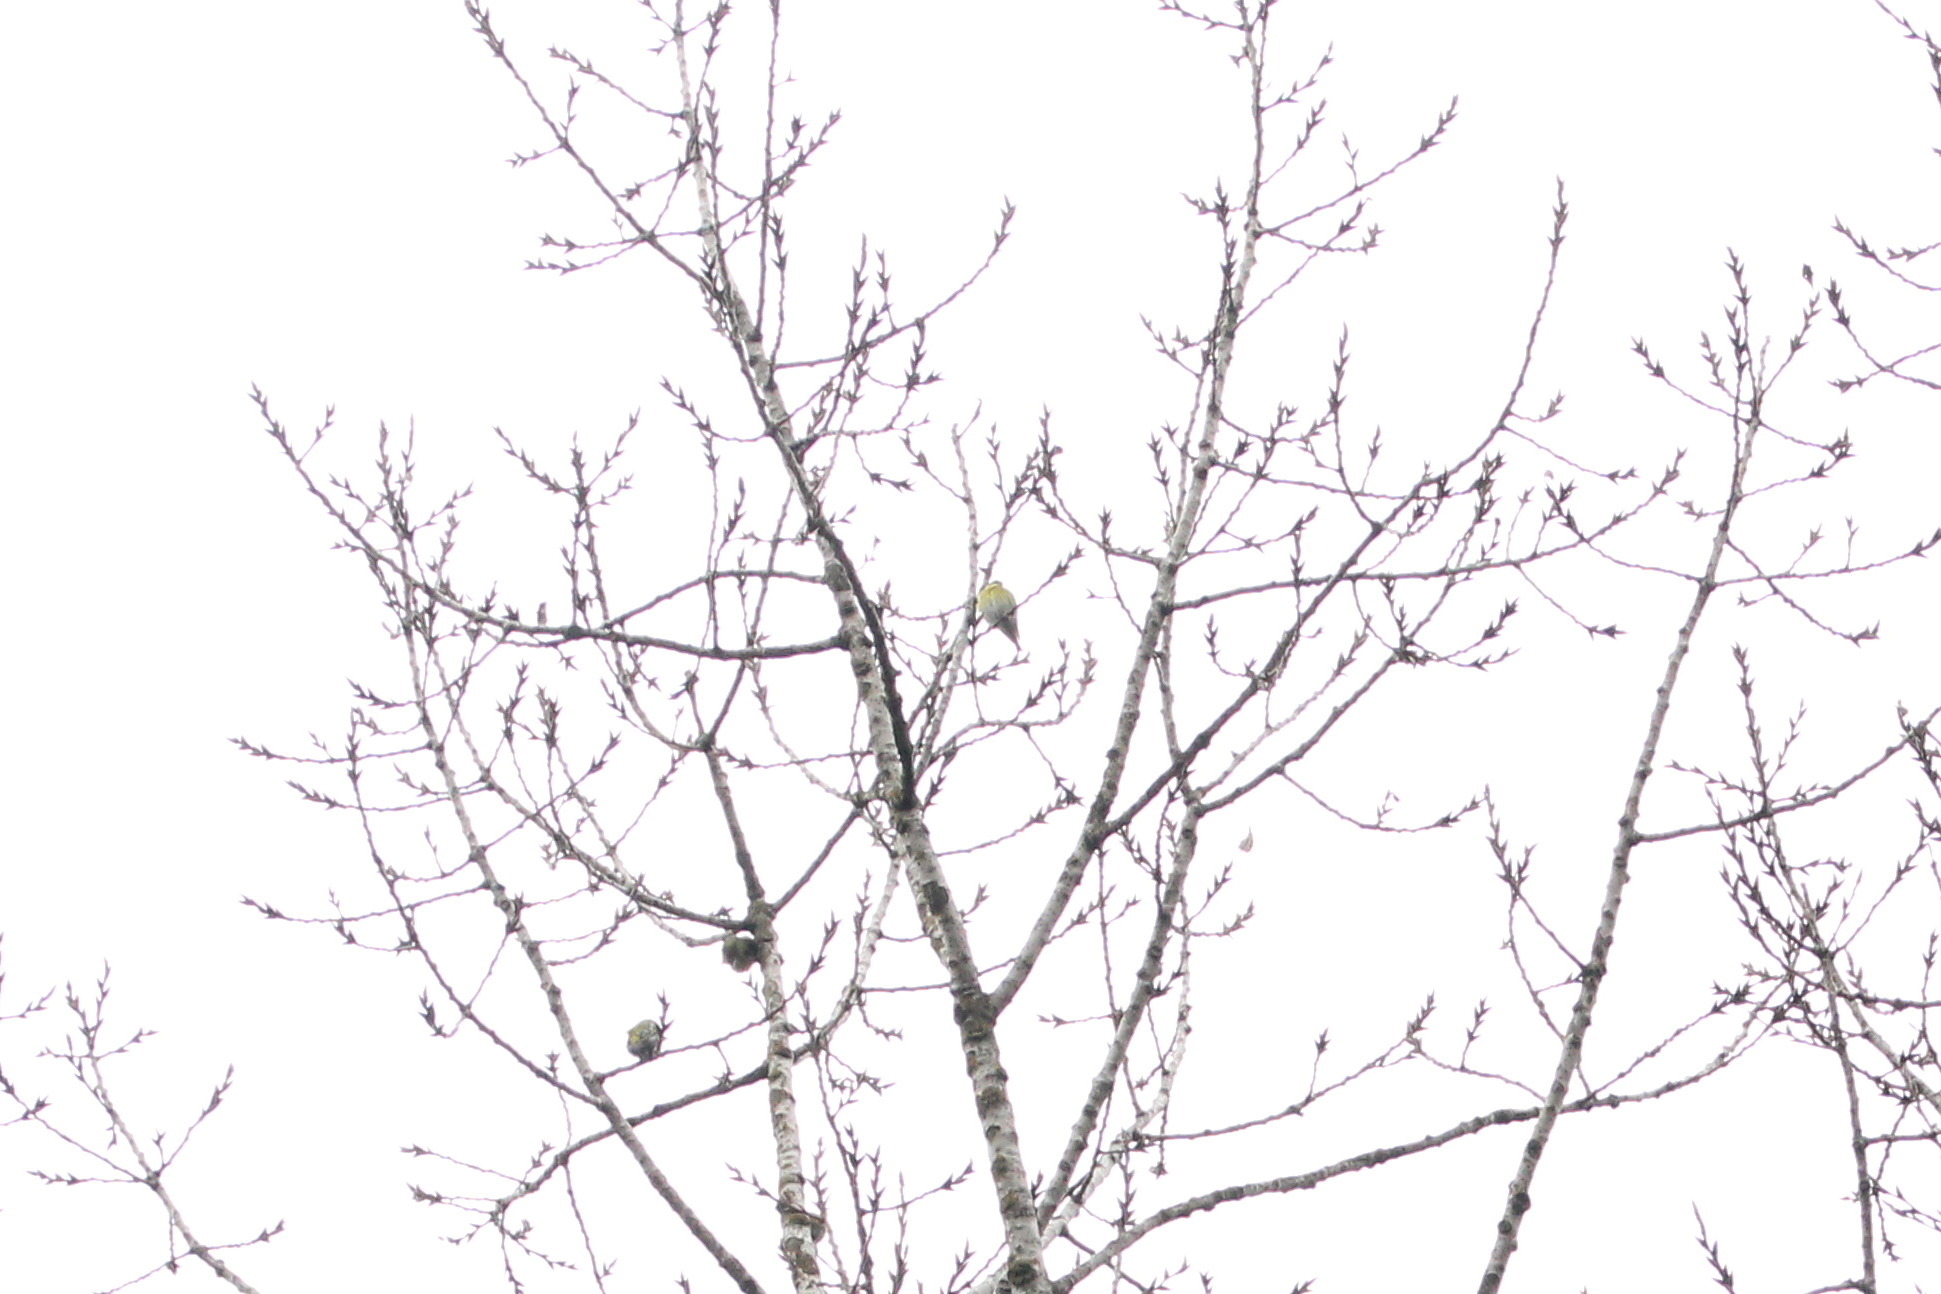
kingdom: Animalia
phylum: Chordata
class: Aves
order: Passeriformes
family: Fringillidae
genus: Spinus
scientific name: Spinus spinus
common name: Eurasian siskin
